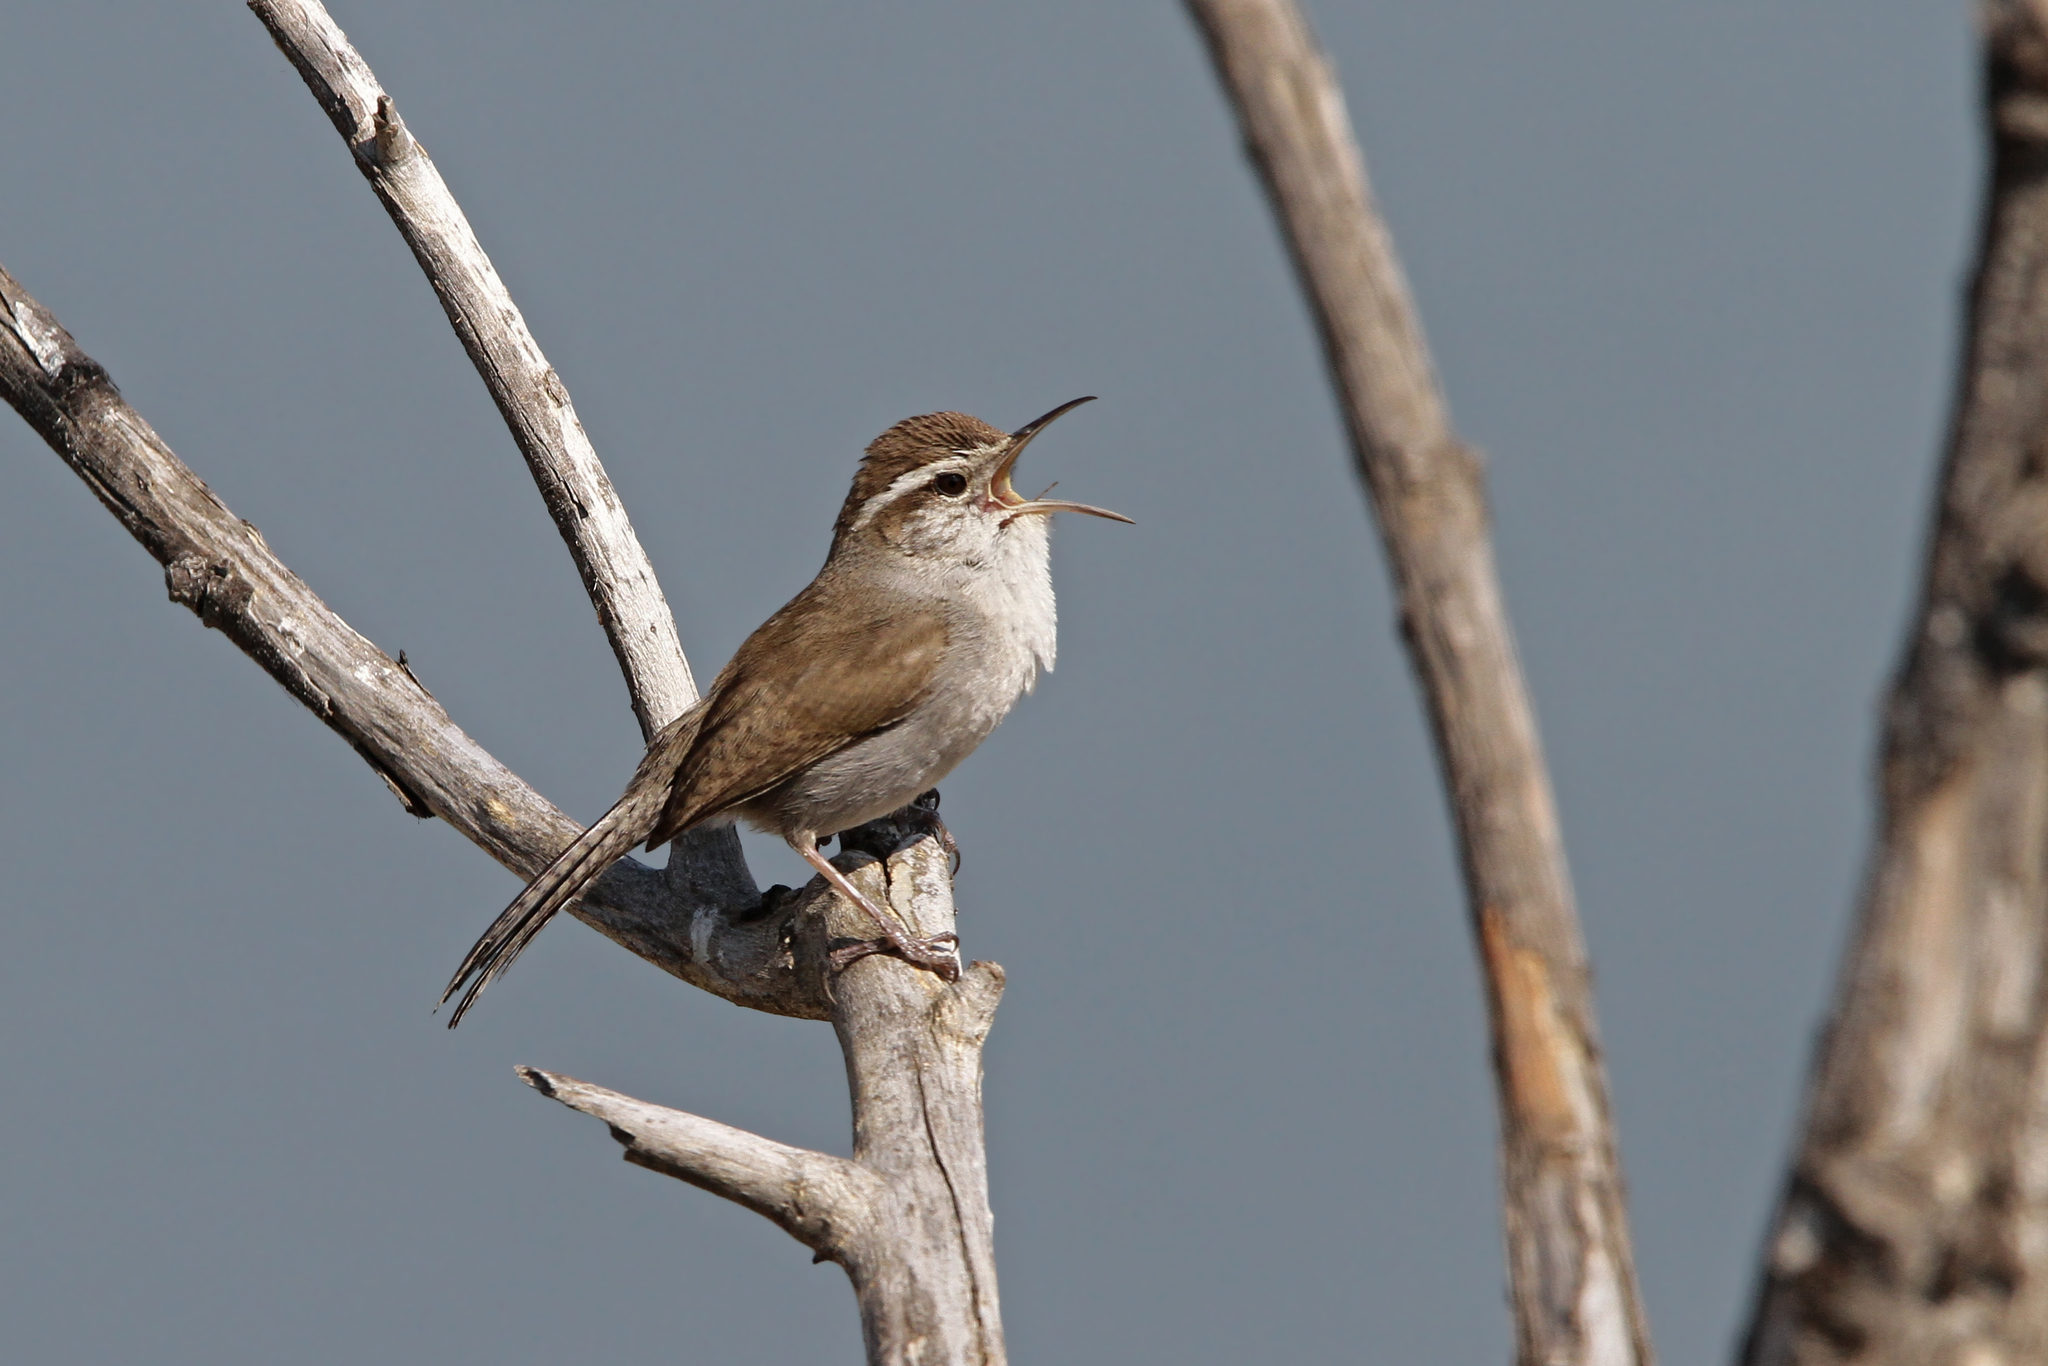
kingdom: Animalia
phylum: Chordata
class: Aves
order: Passeriformes
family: Troglodytidae
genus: Thryomanes
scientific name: Thryomanes bewickii
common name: Bewick's wren
